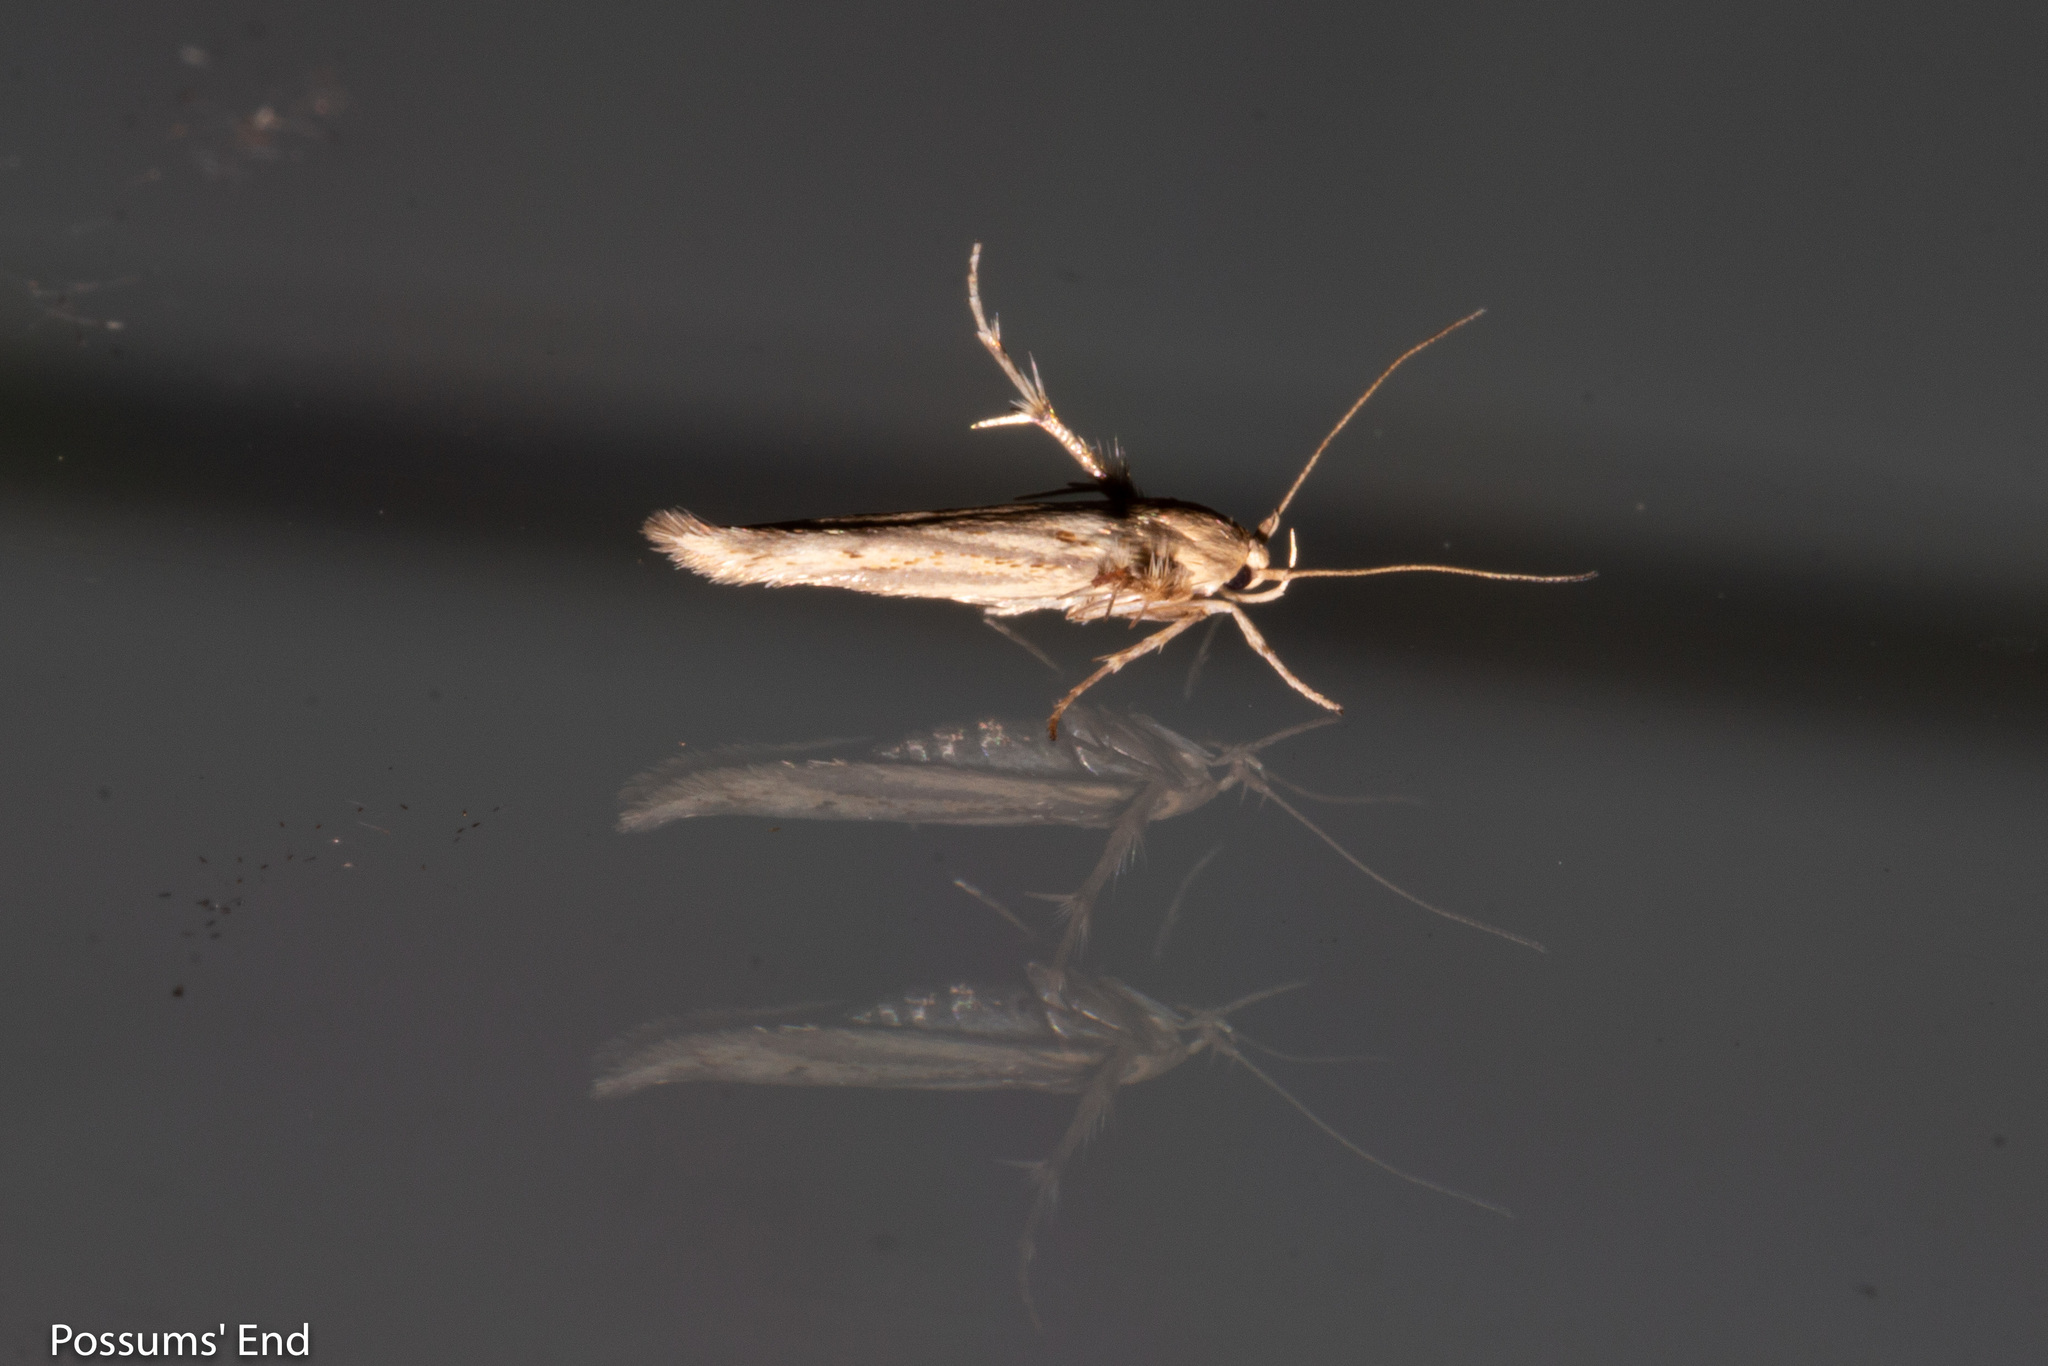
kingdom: Animalia
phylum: Arthropoda
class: Insecta
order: Lepidoptera
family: Stathmopodidae
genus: Stathmopoda
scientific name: Stathmopoda plumbiflua
